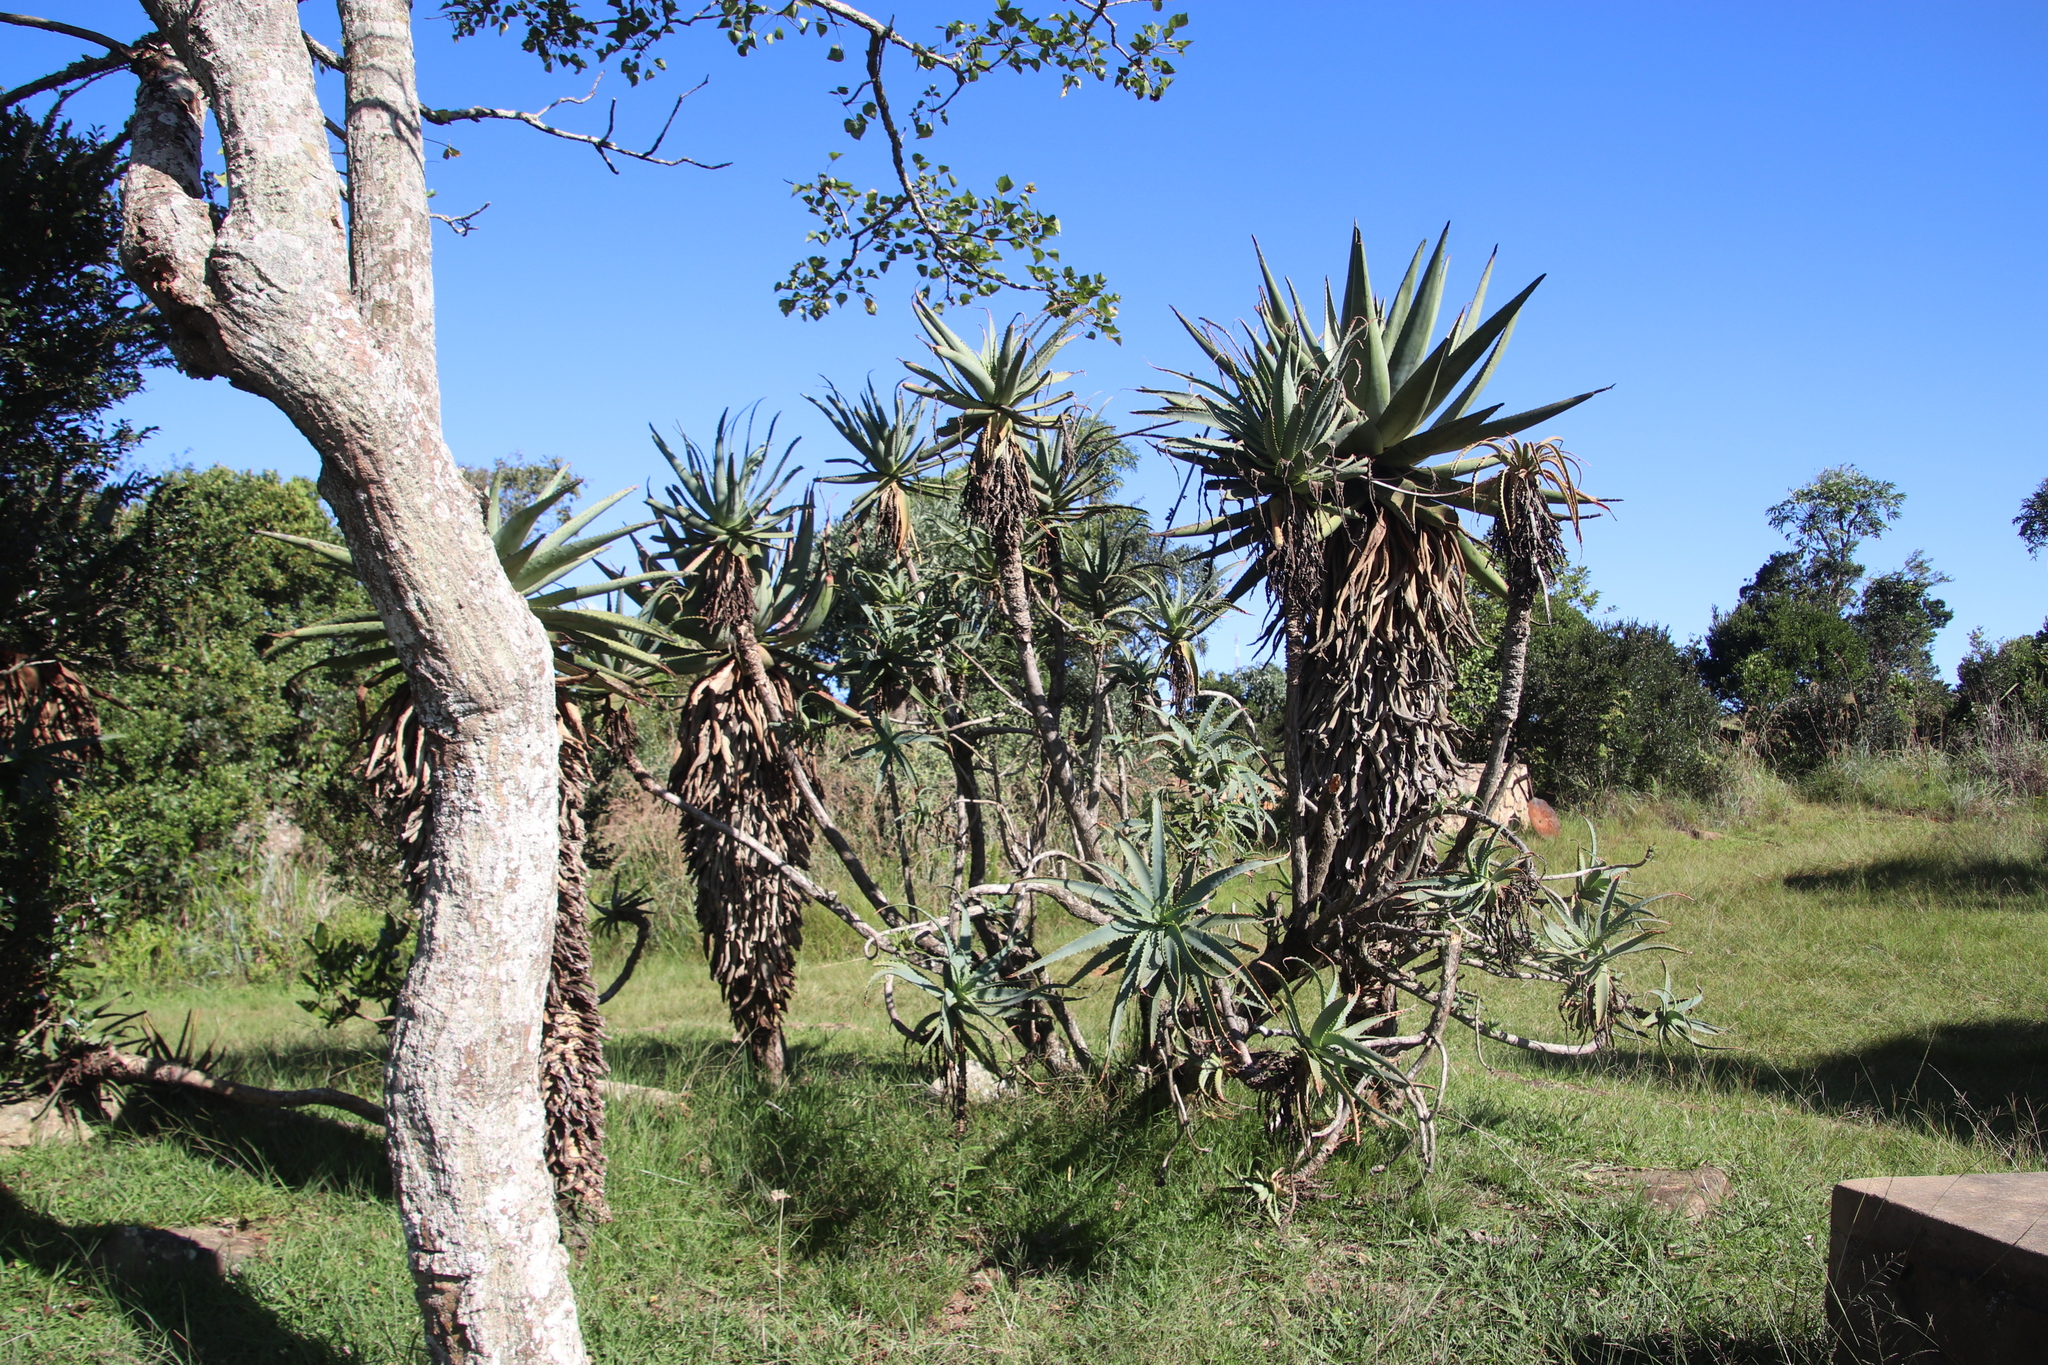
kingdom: Plantae
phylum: Tracheophyta
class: Liliopsida
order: Asparagales
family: Asphodelaceae
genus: Aloe
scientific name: Aloe arborescens
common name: Candelabra aloe
